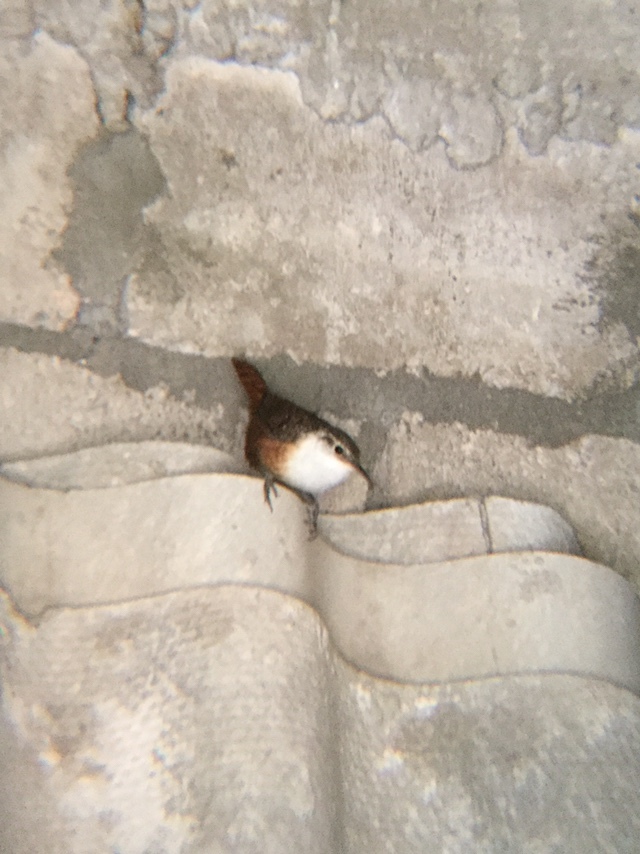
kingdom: Animalia
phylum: Chordata
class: Aves
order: Passeriformes
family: Troglodytidae
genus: Catherpes
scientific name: Catherpes mexicanus
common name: Canyon wren
